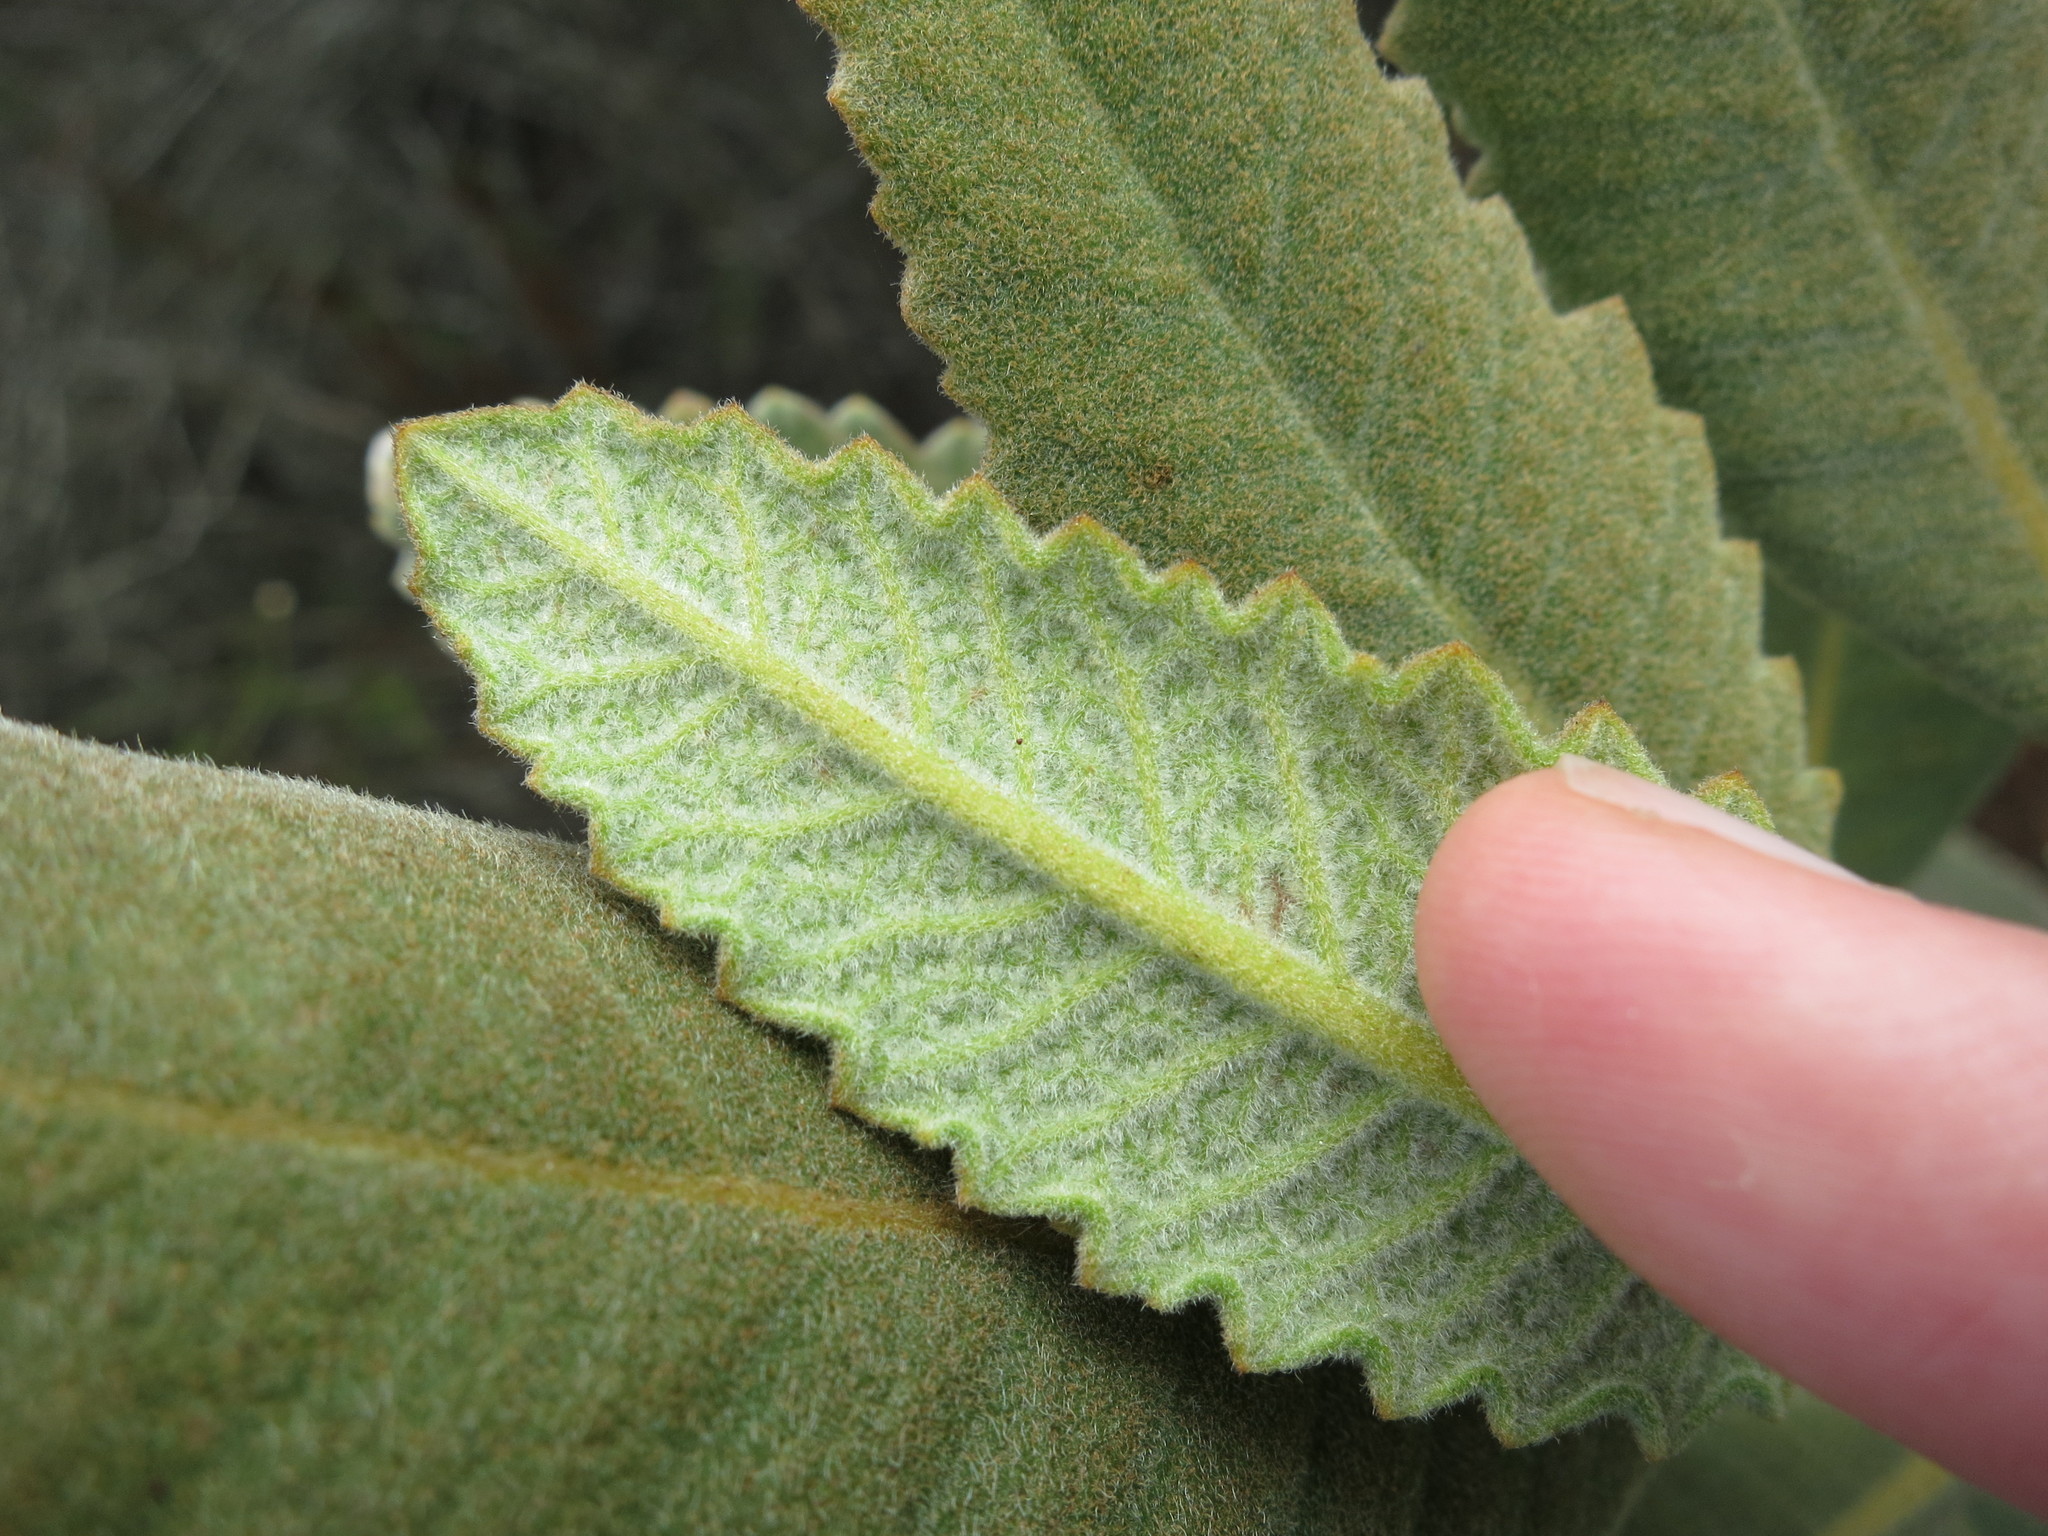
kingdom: Plantae
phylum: Tracheophyta
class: Magnoliopsida
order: Boraginales
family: Namaceae
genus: Eriodictyon
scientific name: Eriodictyon crassifolium
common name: Thick-leaf yerba-santa
